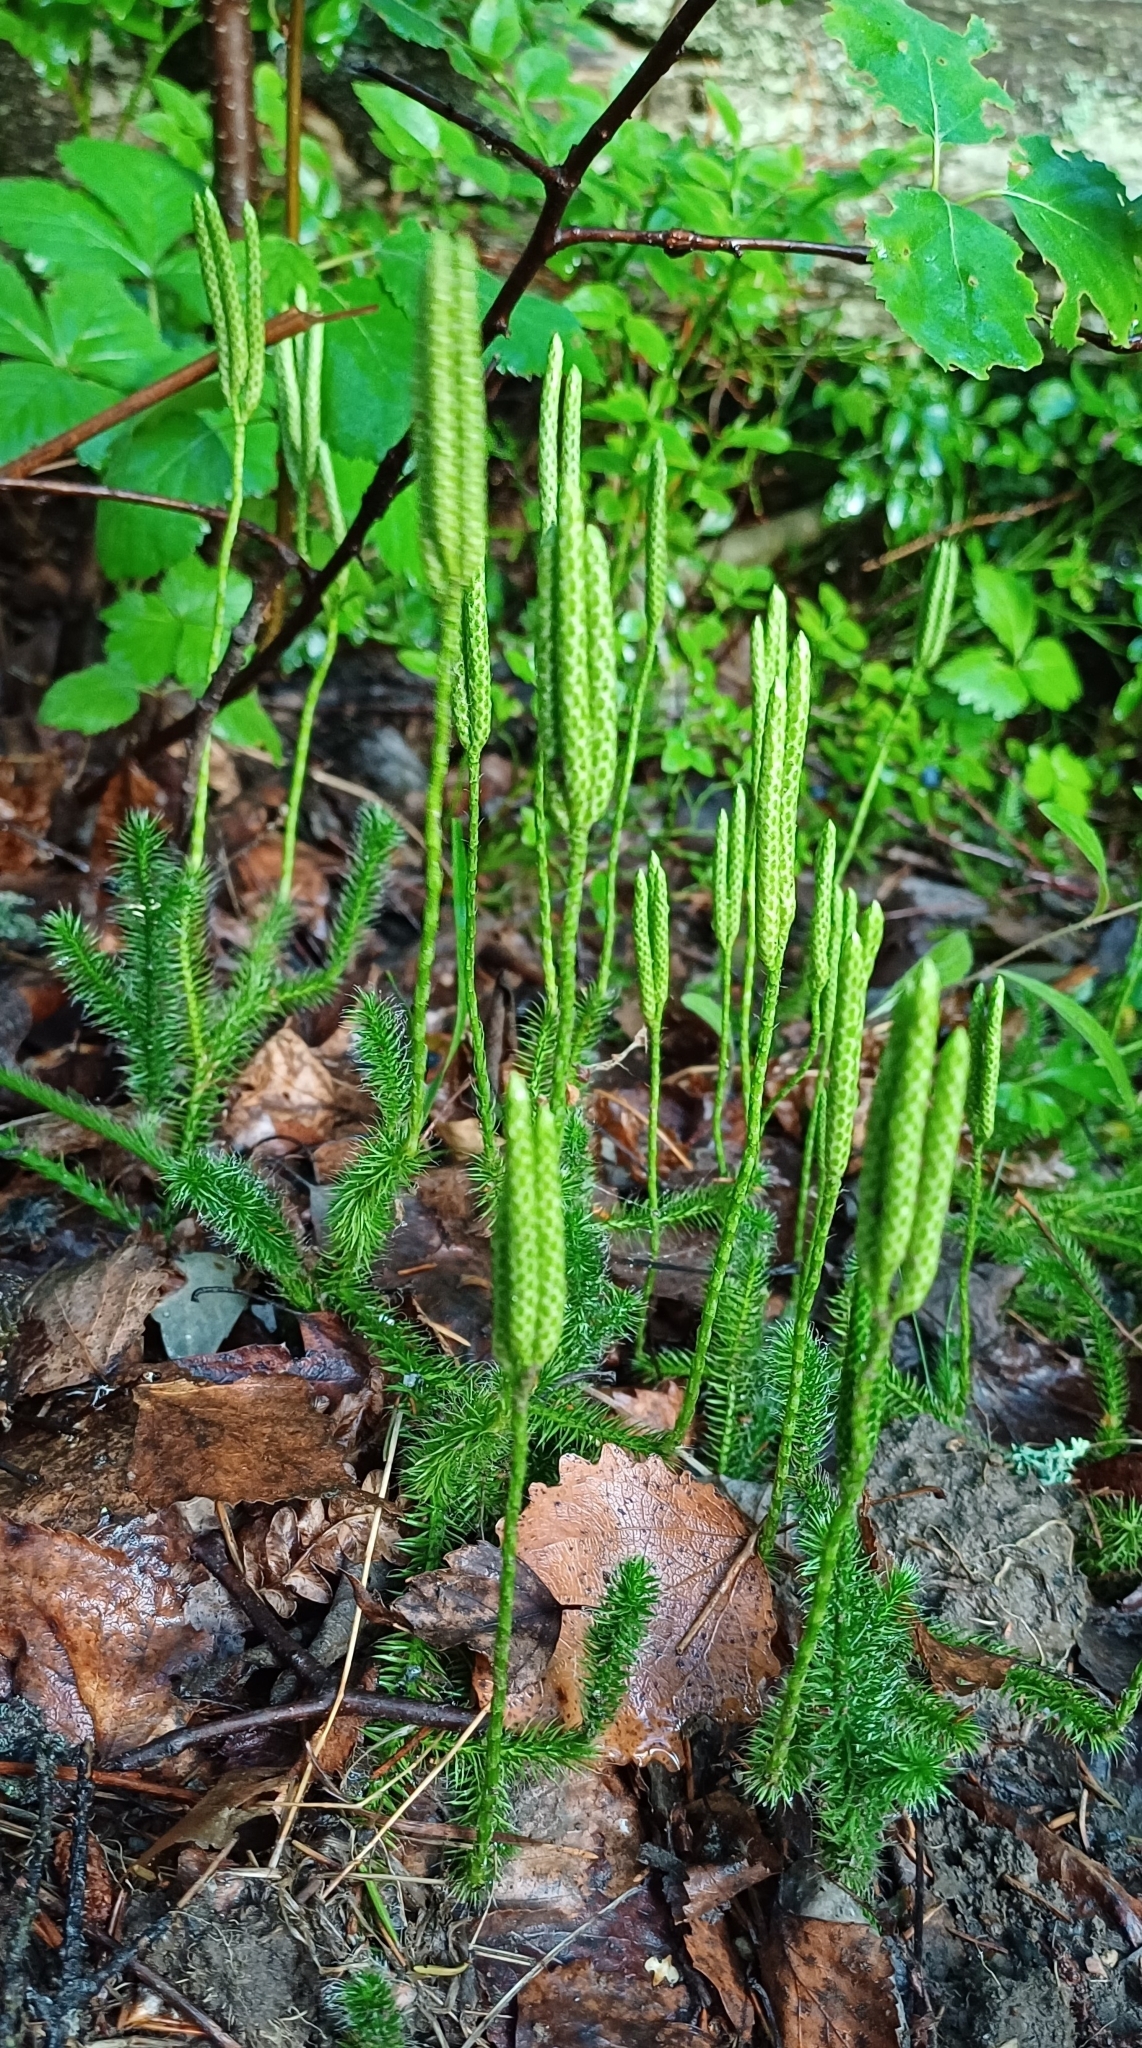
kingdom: Plantae
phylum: Tracheophyta
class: Lycopodiopsida
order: Lycopodiales
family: Lycopodiaceae
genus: Lycopodium
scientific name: Lycopodium clavatum
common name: Stag's-horn clubmoss
